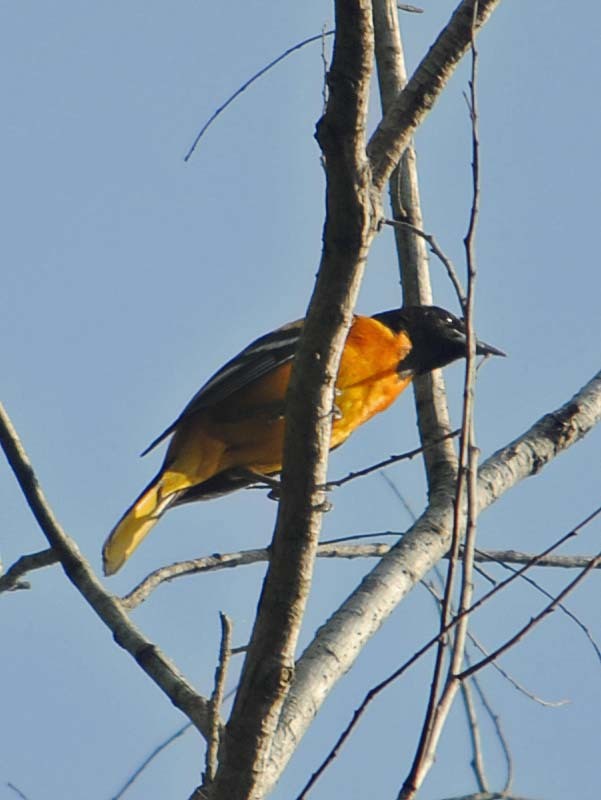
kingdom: Animalia
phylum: Chordata
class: Aves
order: Passeriformes
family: Icteridae
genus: Icterus
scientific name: Icterus galbula
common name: Baltimore oriole
